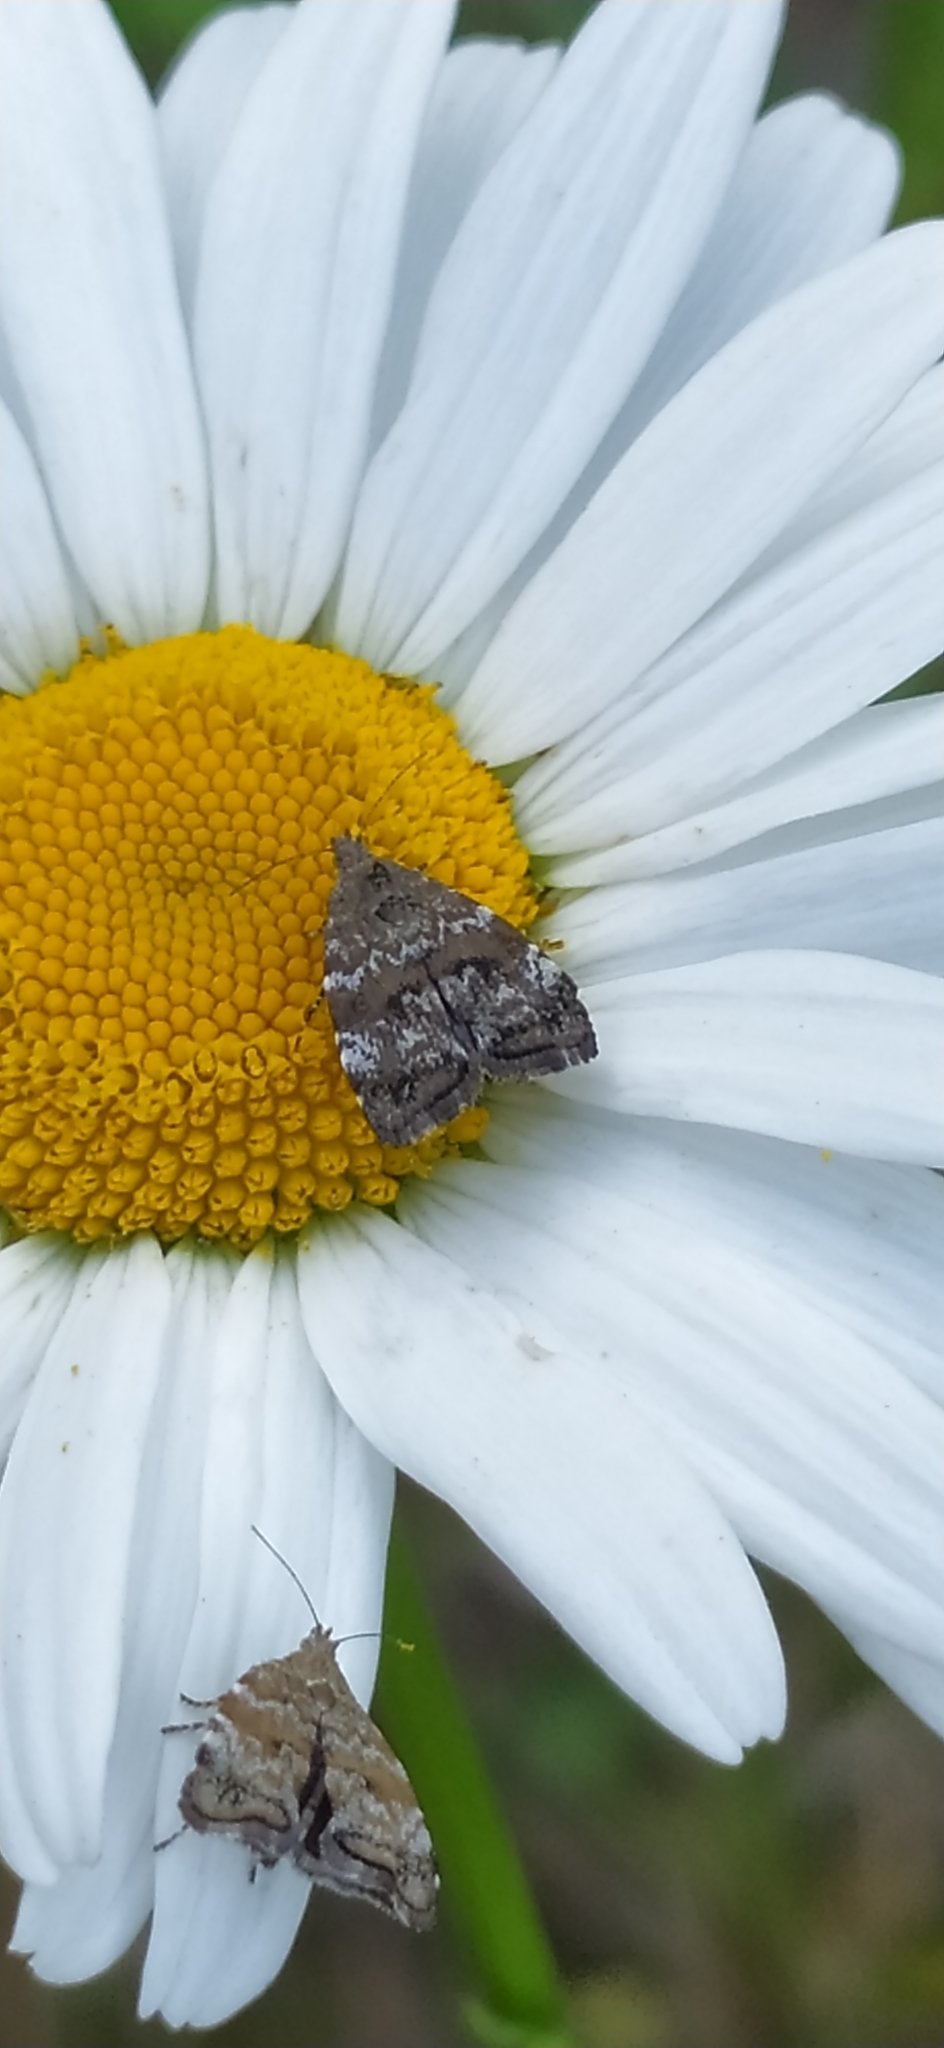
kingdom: Animalia
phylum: Arthropoda
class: Insecta
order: Lepidoptera
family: Choreutidae
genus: Choreutis
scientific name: Choreutis diana
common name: Inverness twitcher
